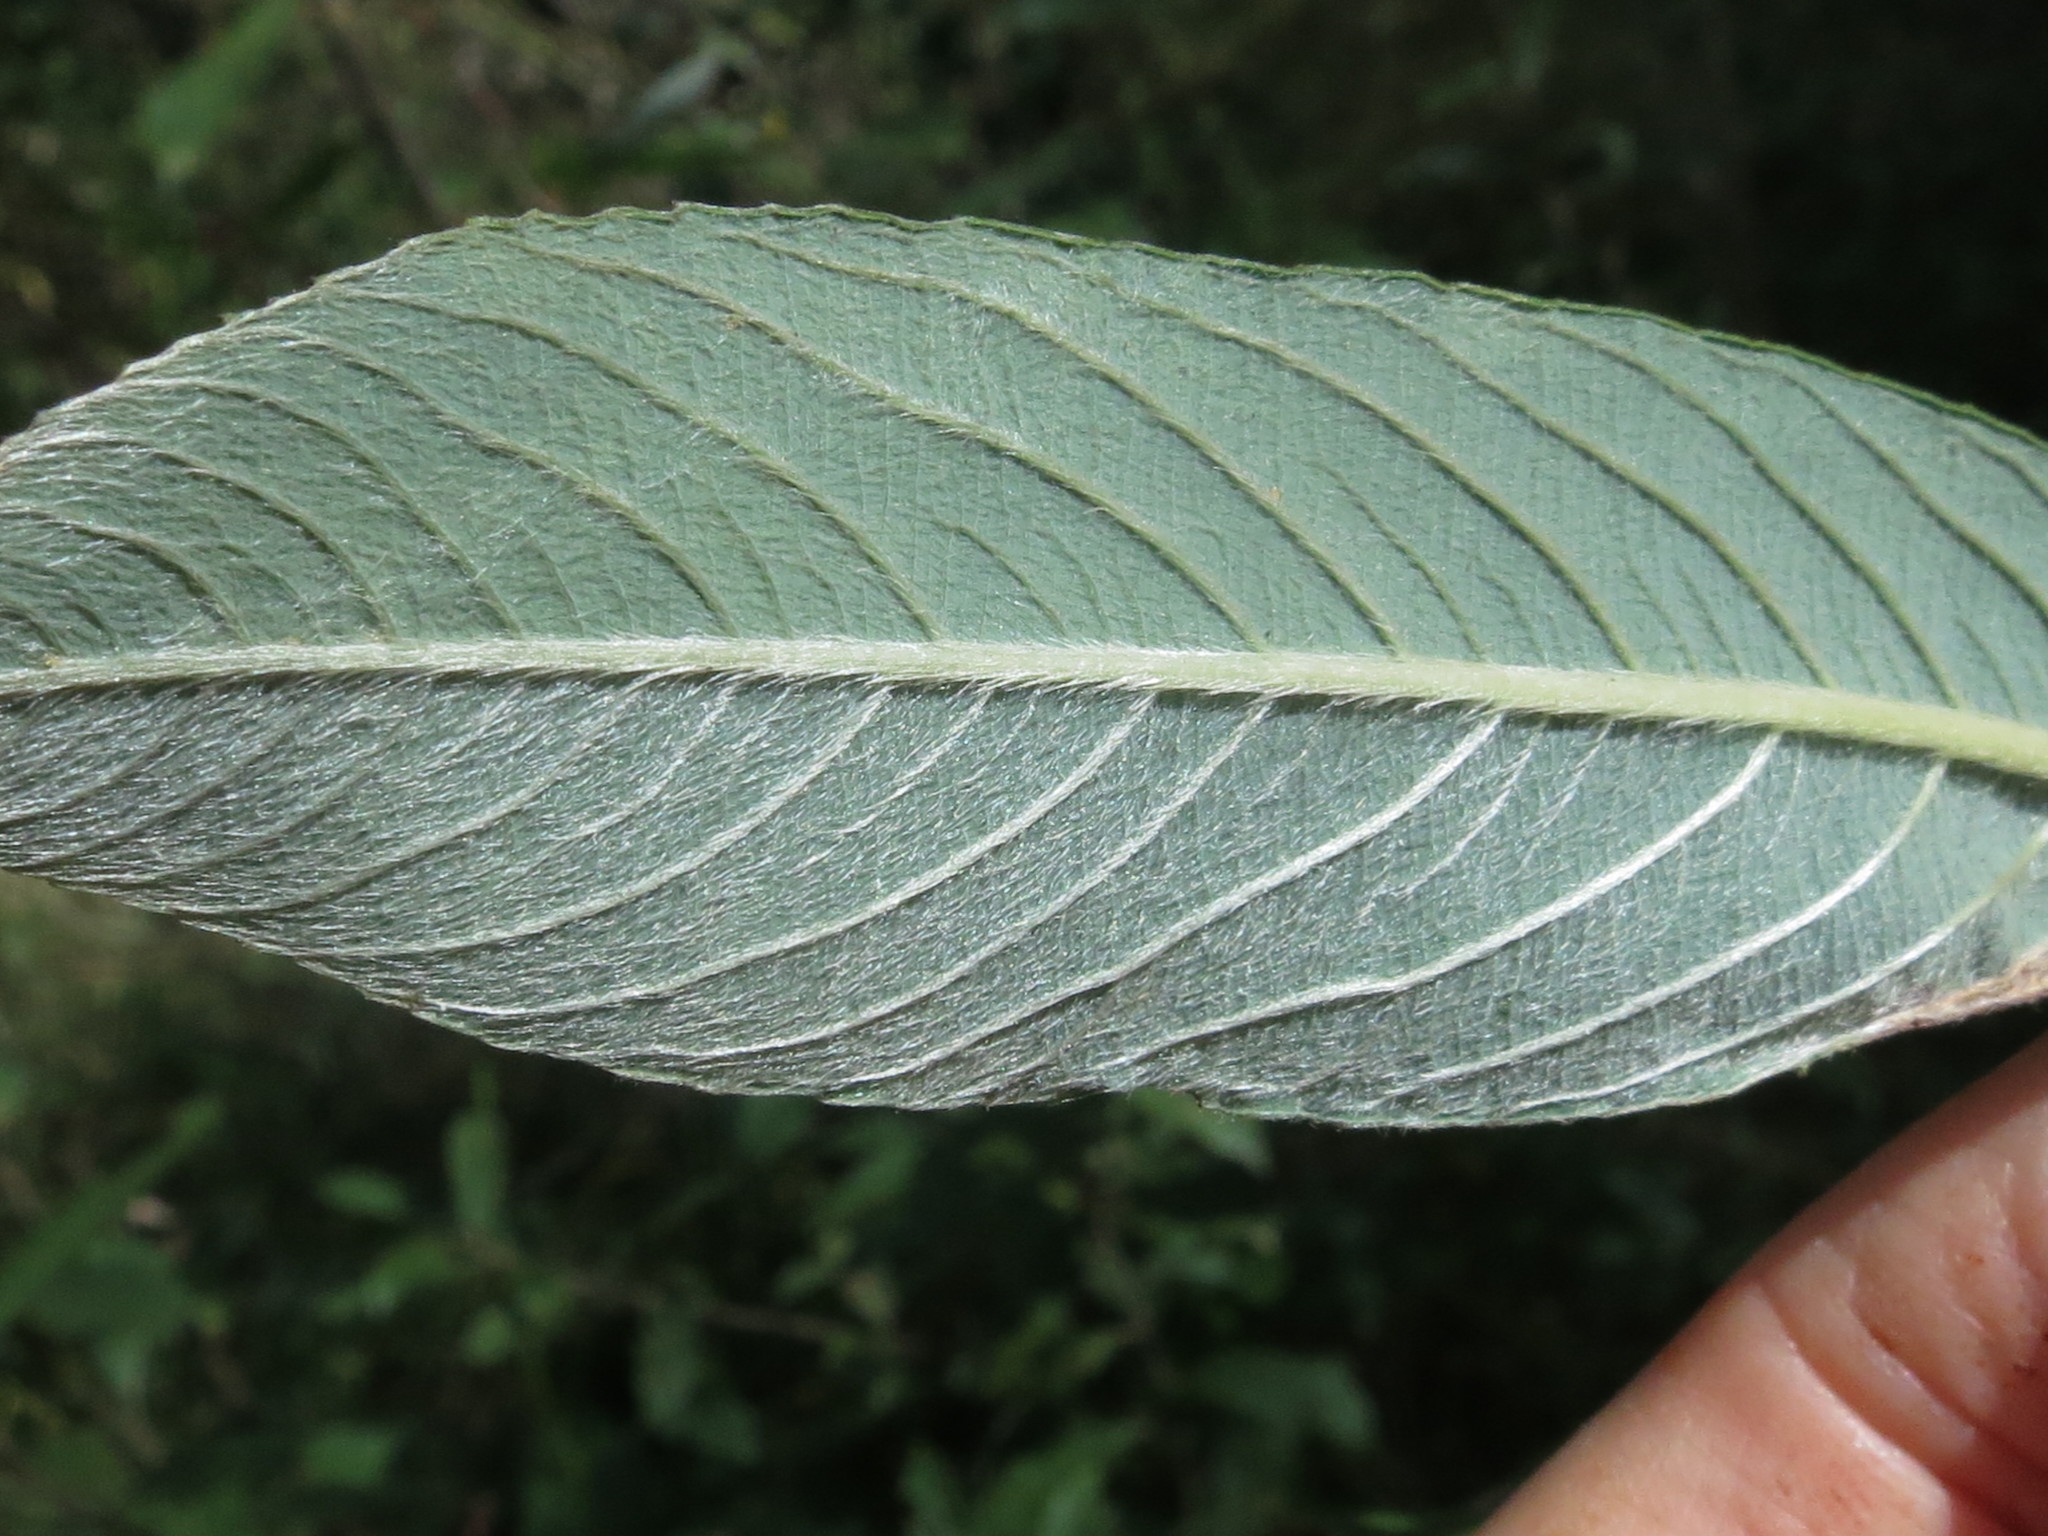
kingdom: Plantae
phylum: Tracheophyta
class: Magnoliopsida
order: Malpighiales
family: Salicaceae
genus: Salix
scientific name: Salix gracilistyla
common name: Rose-gold pussy willow
